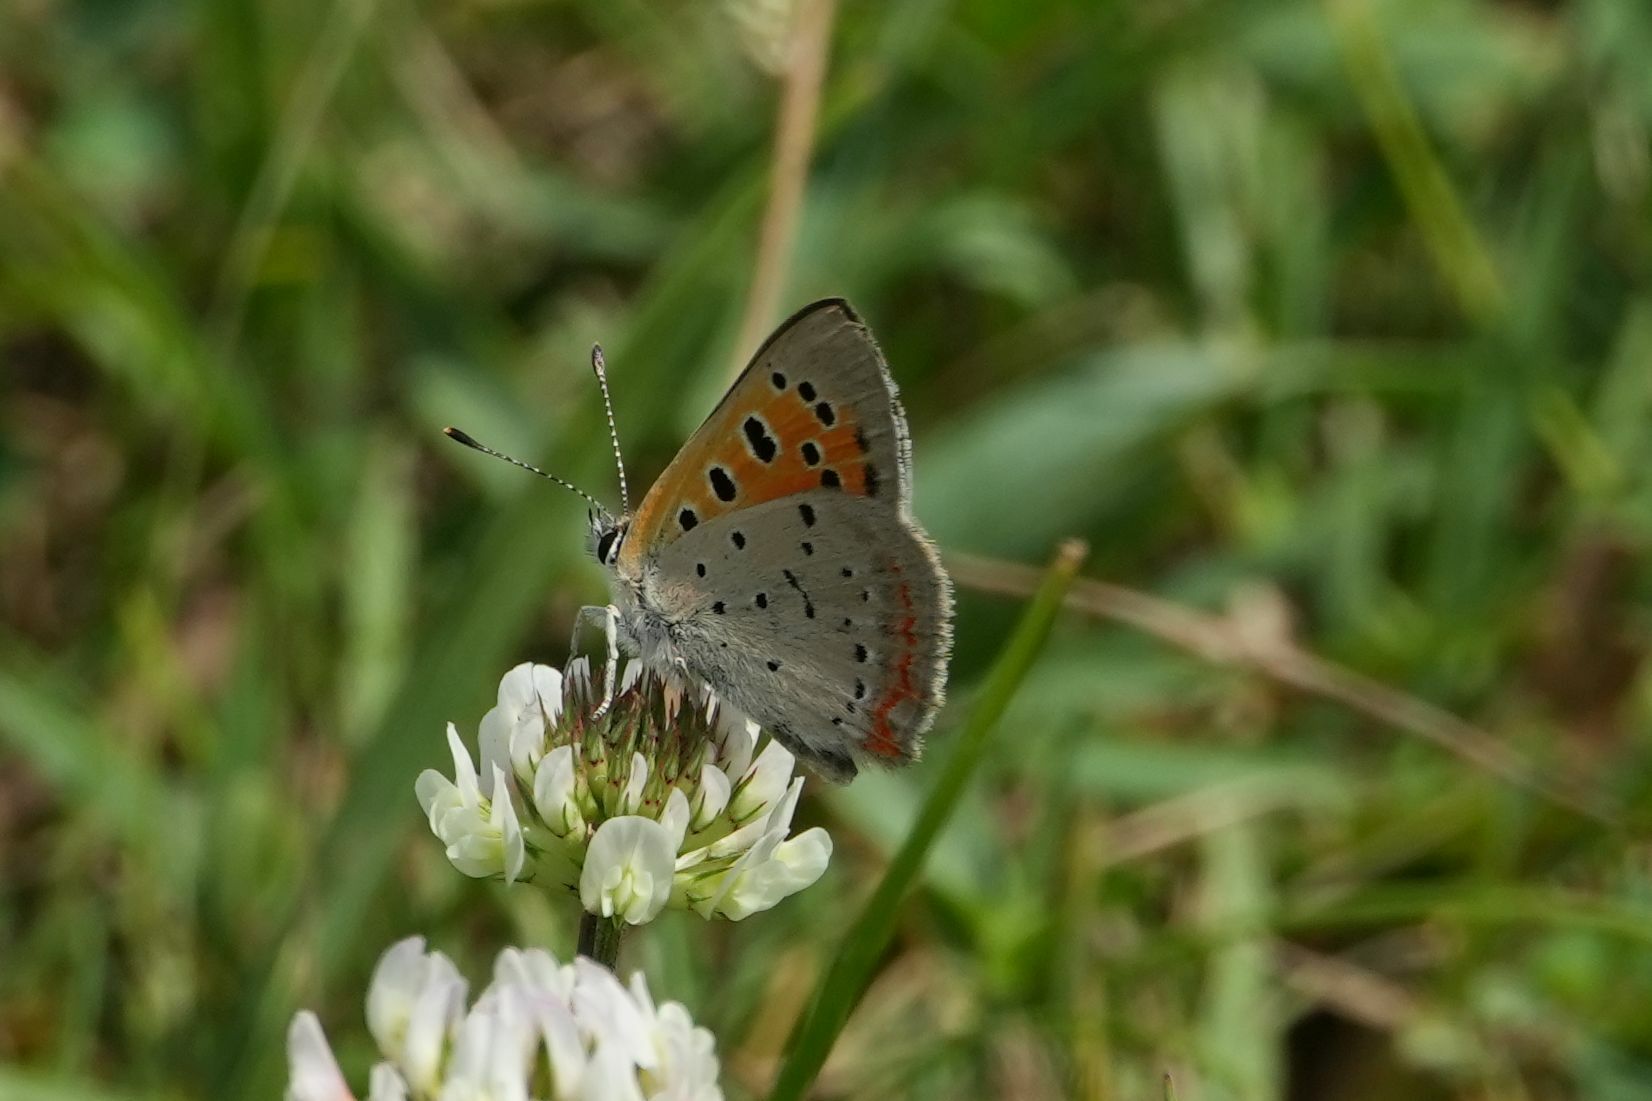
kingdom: Animalia
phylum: Arthropoda
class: Insecta
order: Lepidoptera
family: Lycaenidae
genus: Lycaena
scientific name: Lycaena hypophlaeas
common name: American copper
